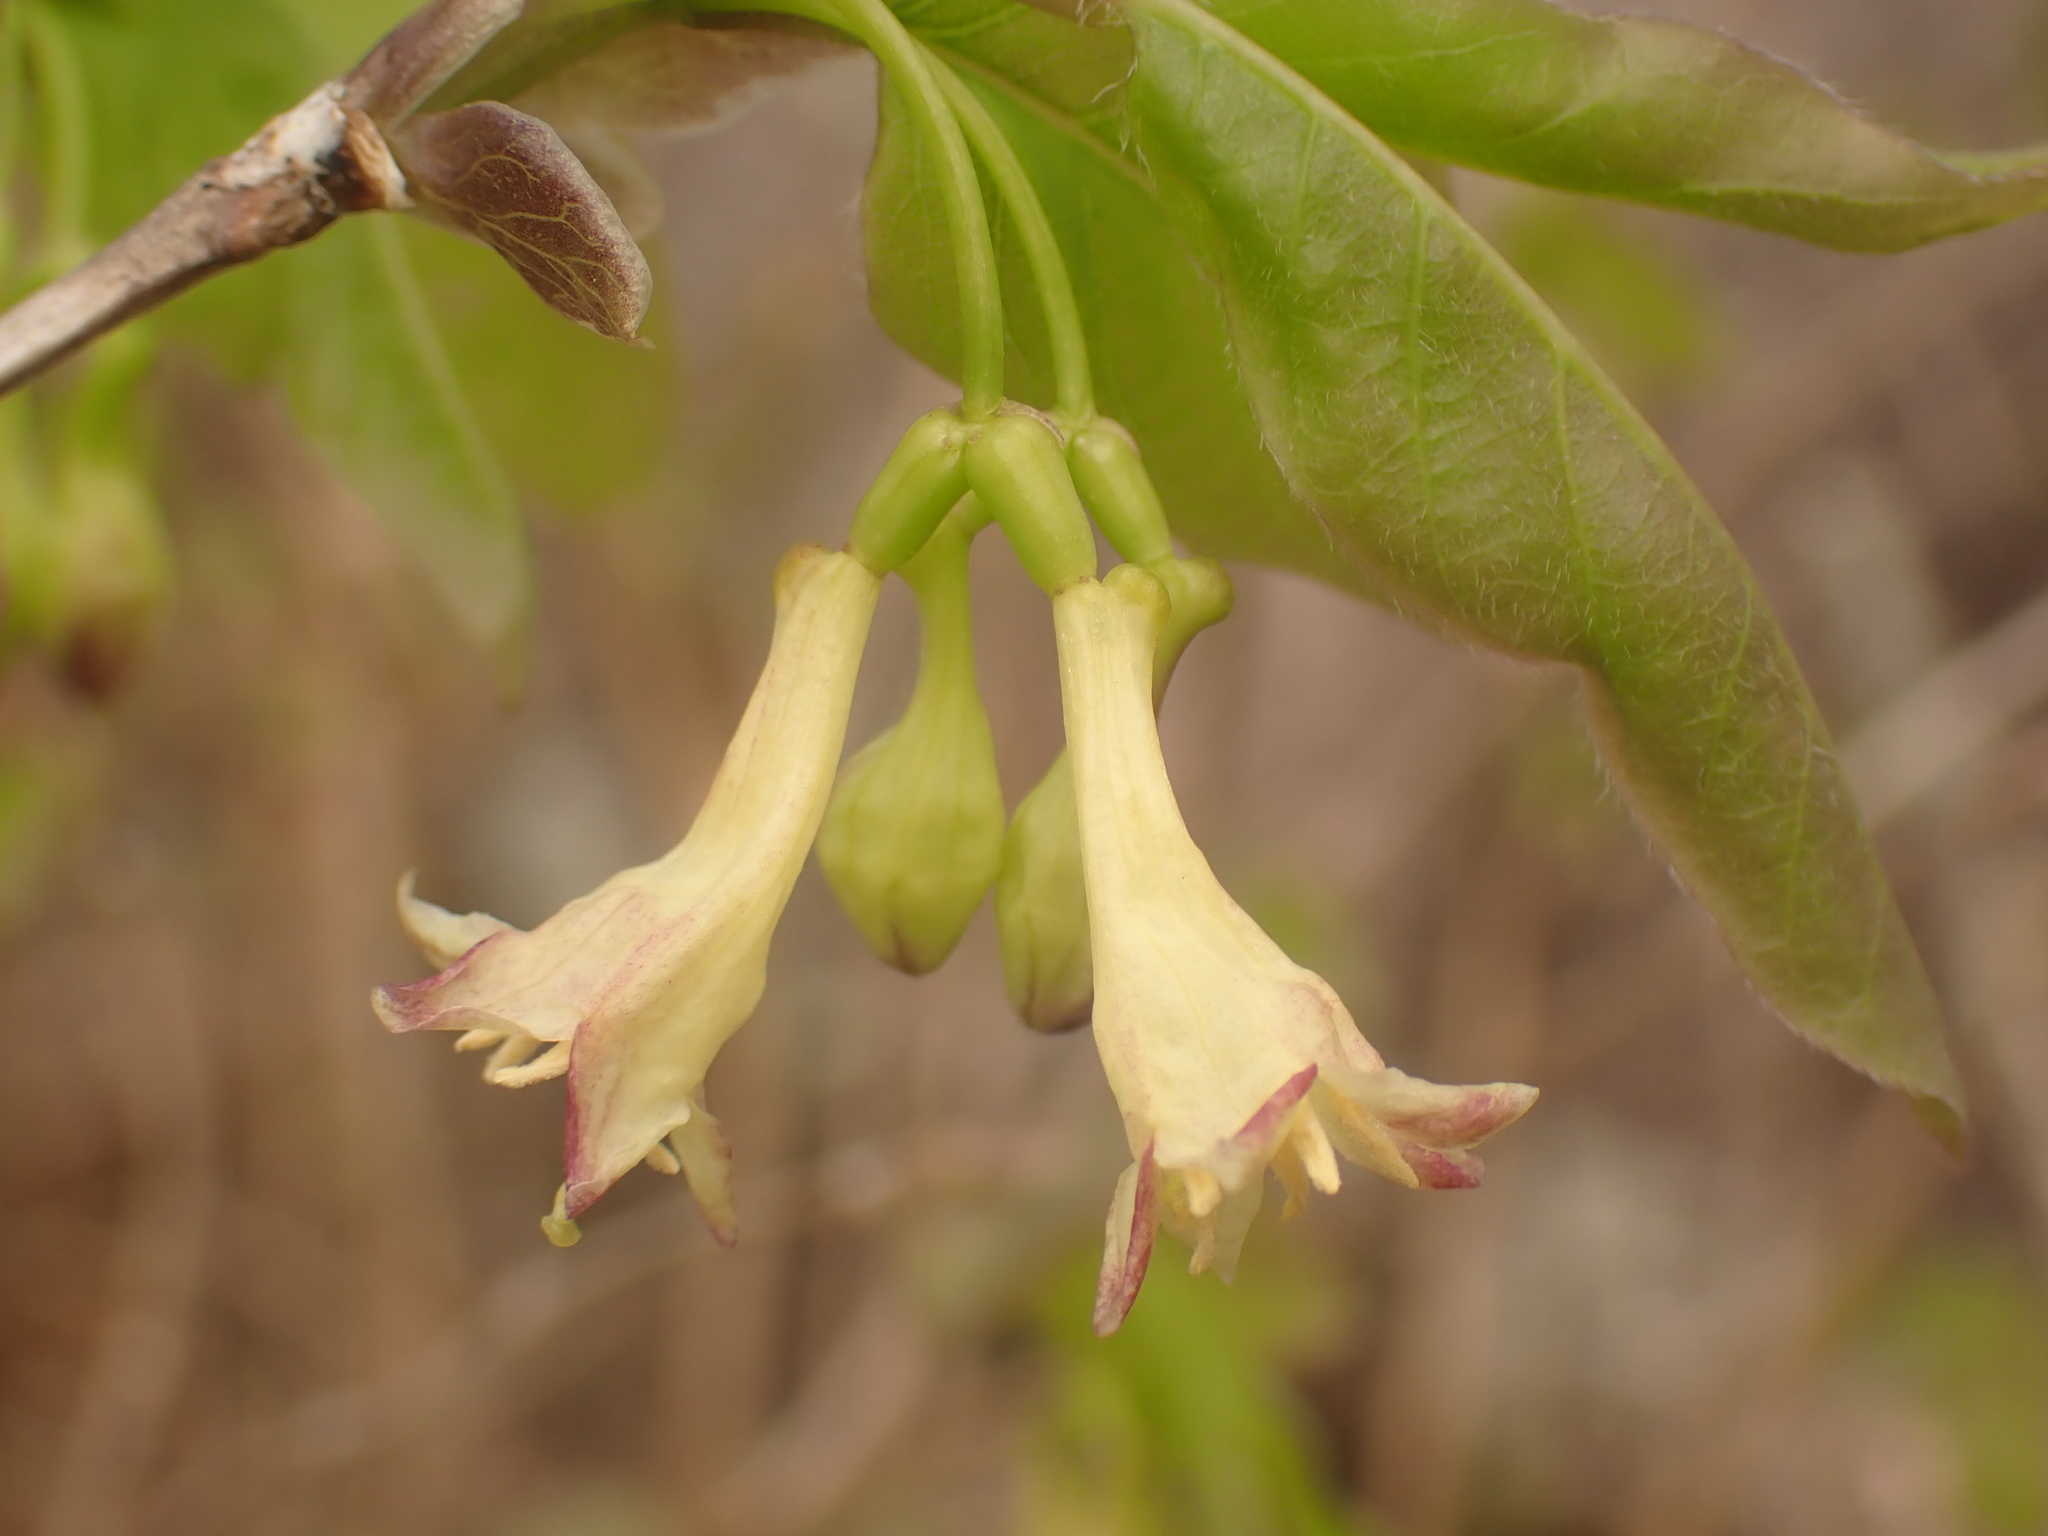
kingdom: Plantae
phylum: Tracheophyta
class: Magnoliopsida
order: Dipsacales
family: Caprifoliaceae
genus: Lonicera
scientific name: Lonicera canadensis
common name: American fly-honeysuckle
